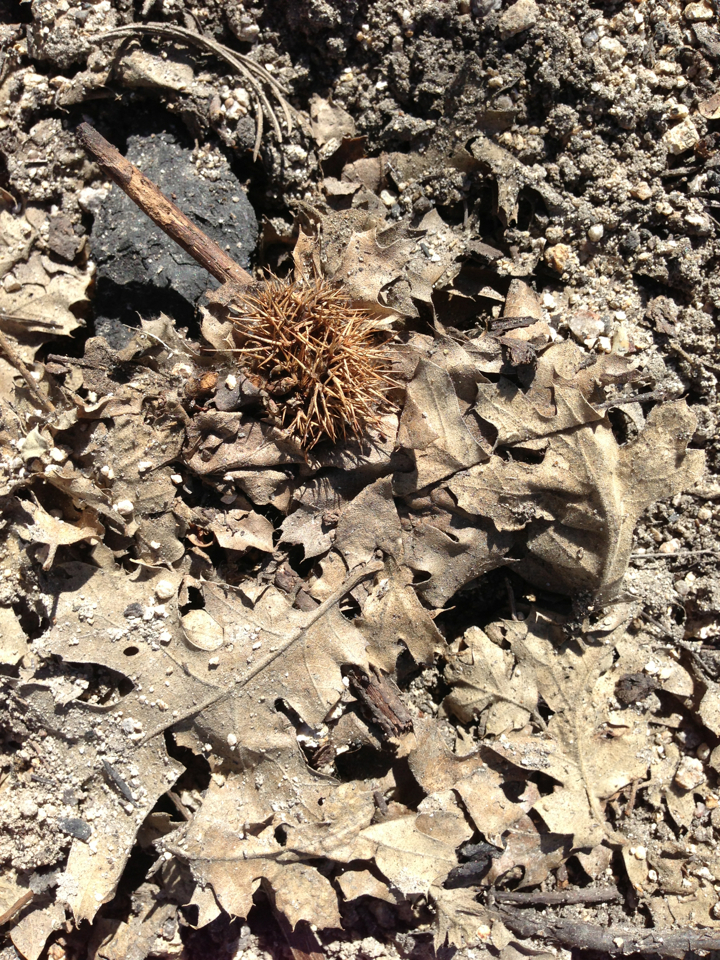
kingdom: Plantae
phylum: Tracheophyta
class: Magnoliopsida
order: Fagales
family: Fagaceae
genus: Chrysolepis
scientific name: Chrysolepis sempervirens
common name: Bush chinquapin
